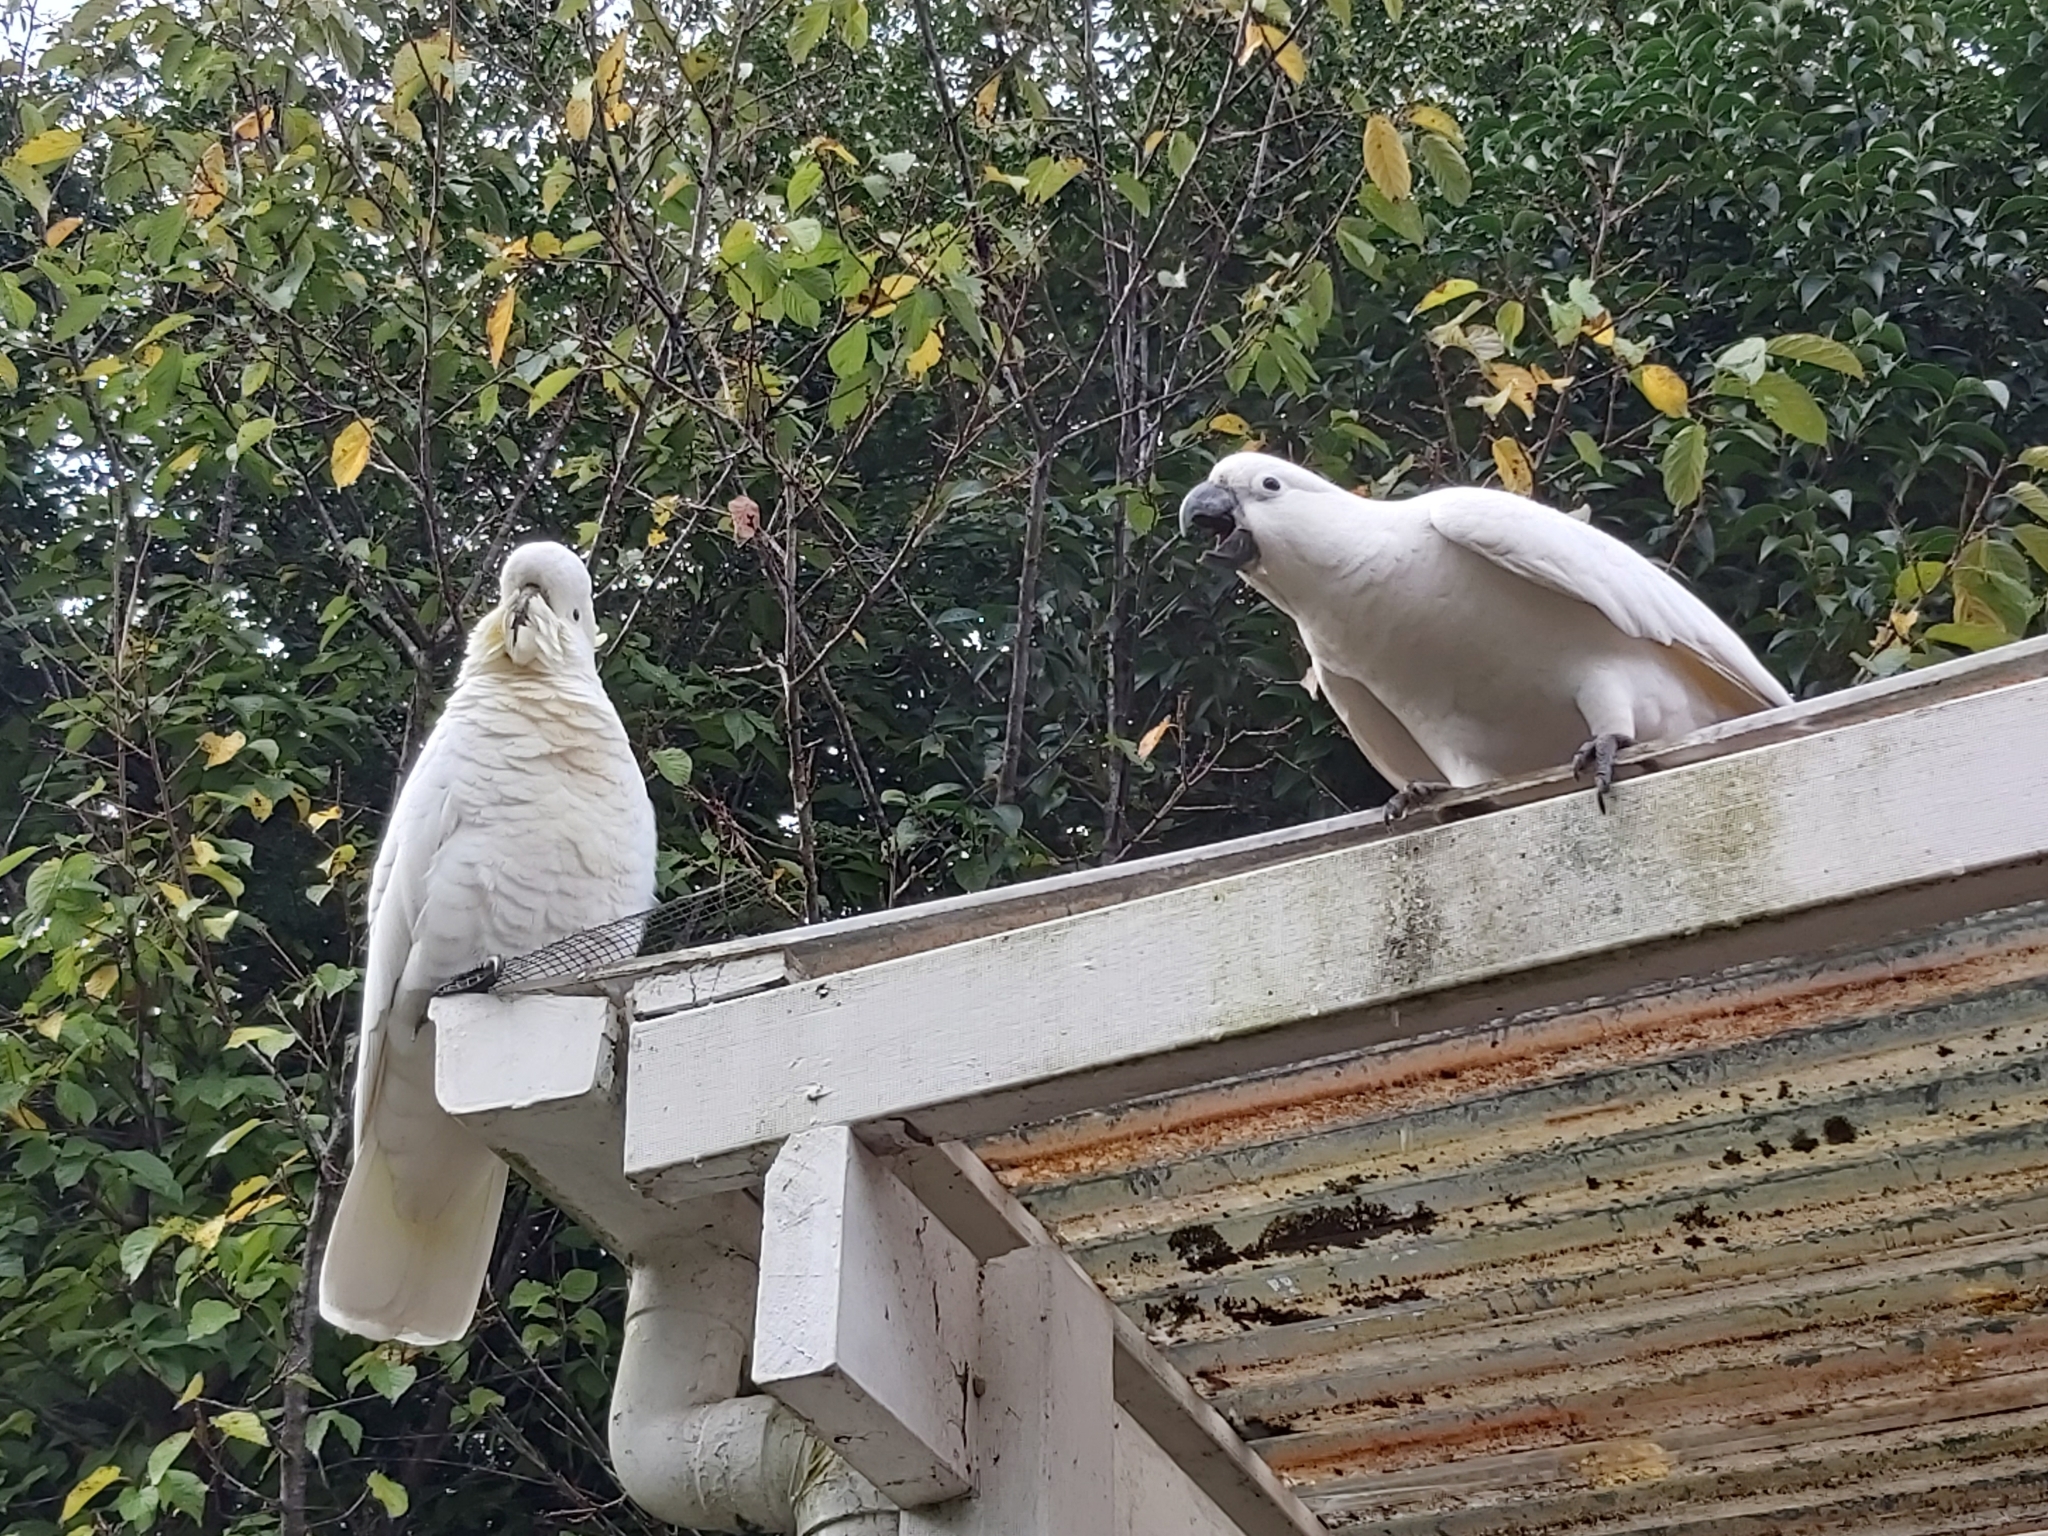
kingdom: Animalia
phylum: Chordata
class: Aves
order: Psittaciformes
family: Psittacidae
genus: Cacatua
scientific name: Cacatua galerita
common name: Sulphur-crested cockatoo
